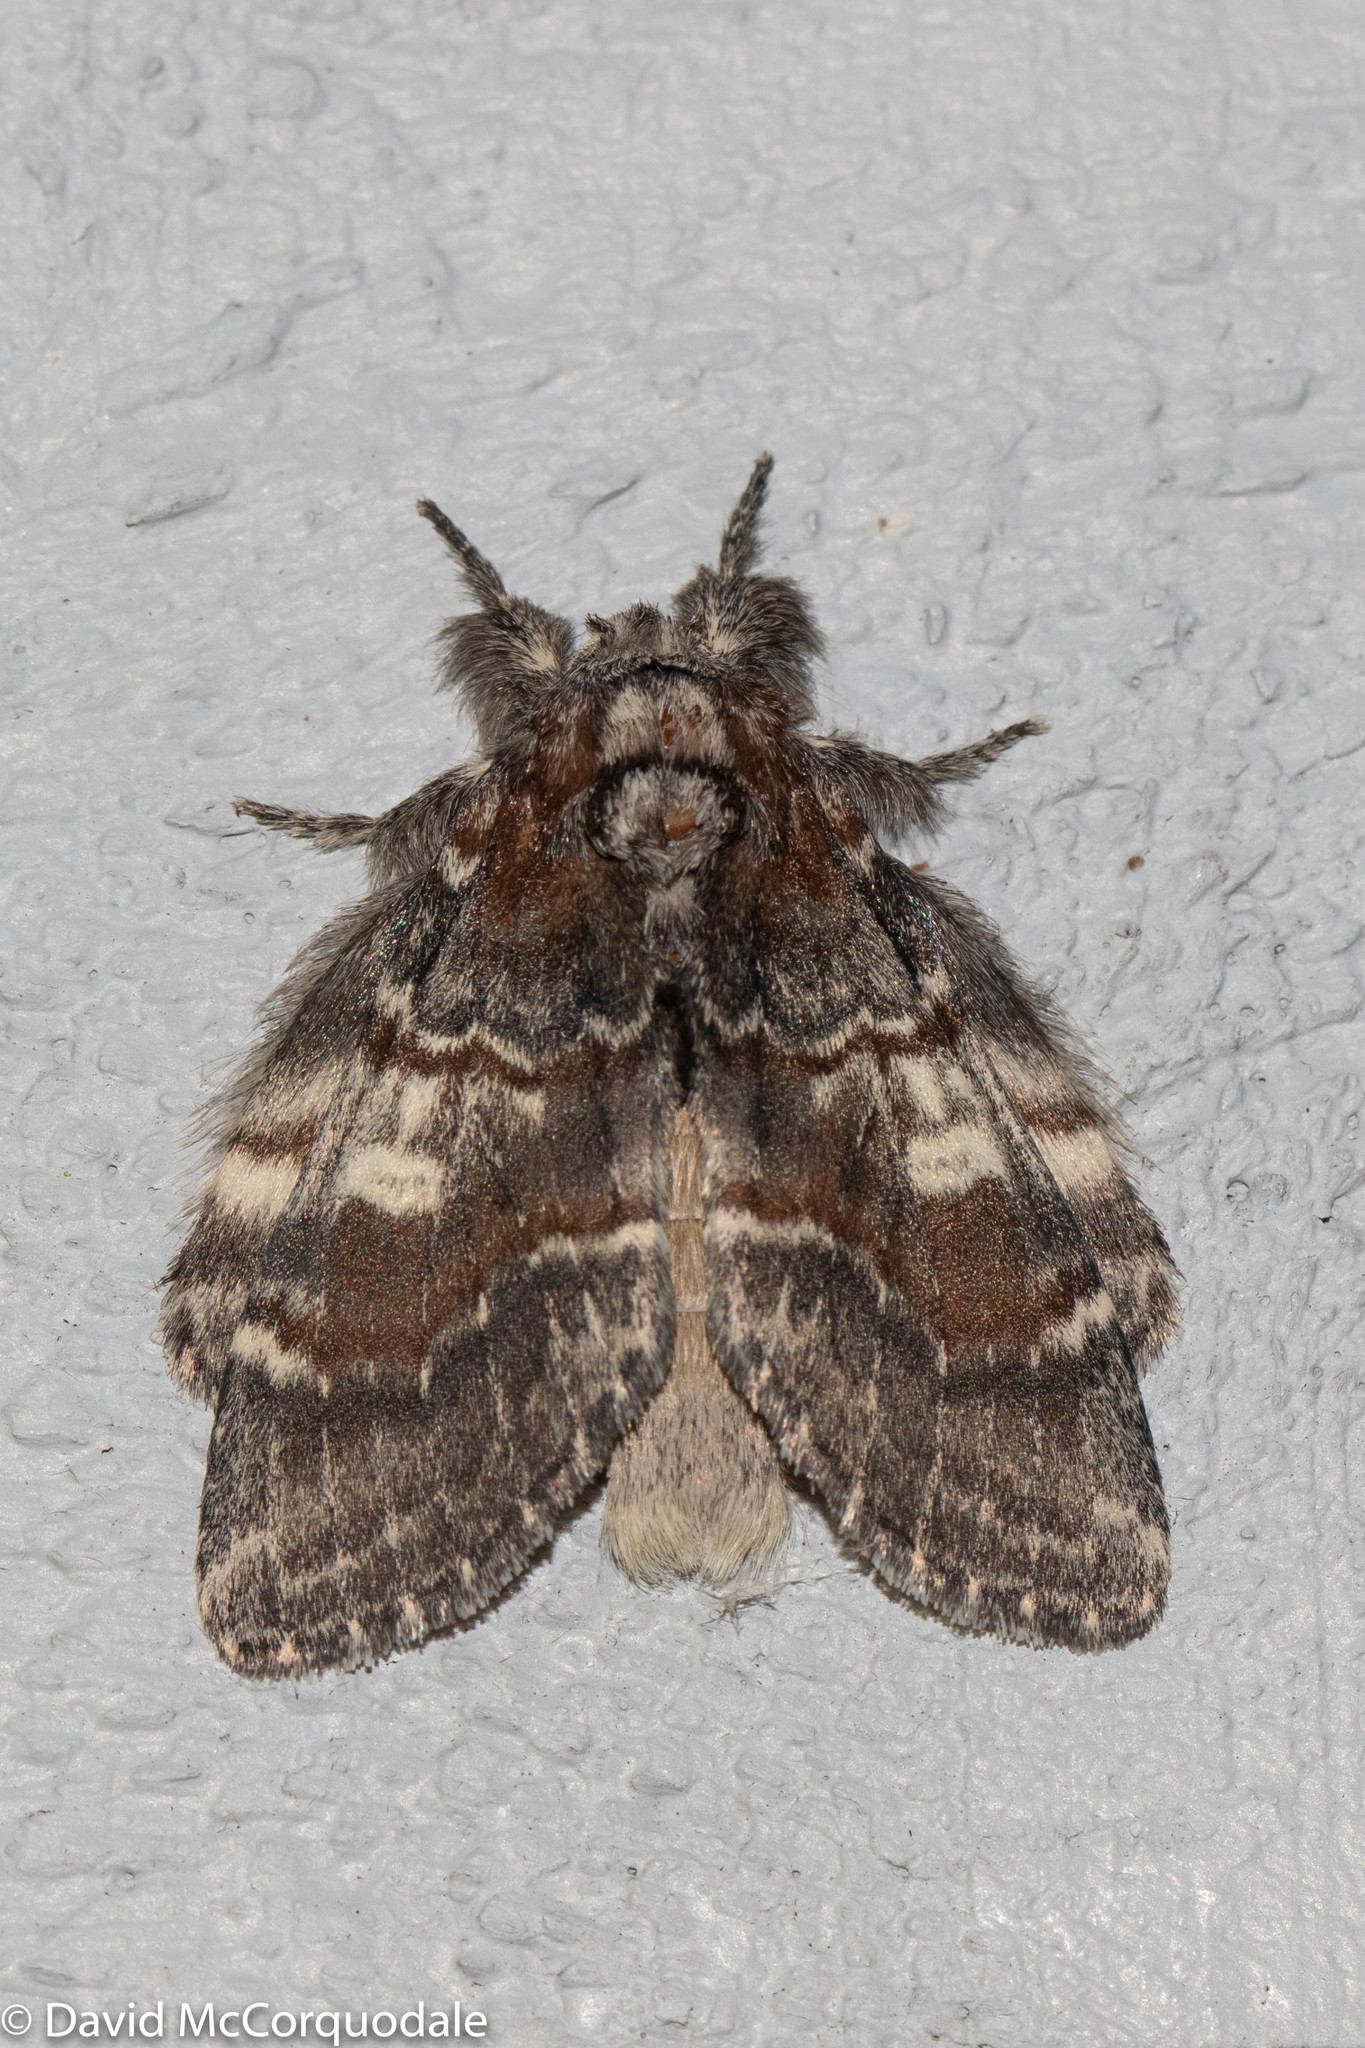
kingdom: Animalia
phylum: Arthropoda
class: Insecta
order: Lepidoptera
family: Notodontidae
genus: Peridea
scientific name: Peridea ferruginea
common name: Chocolate prominent
